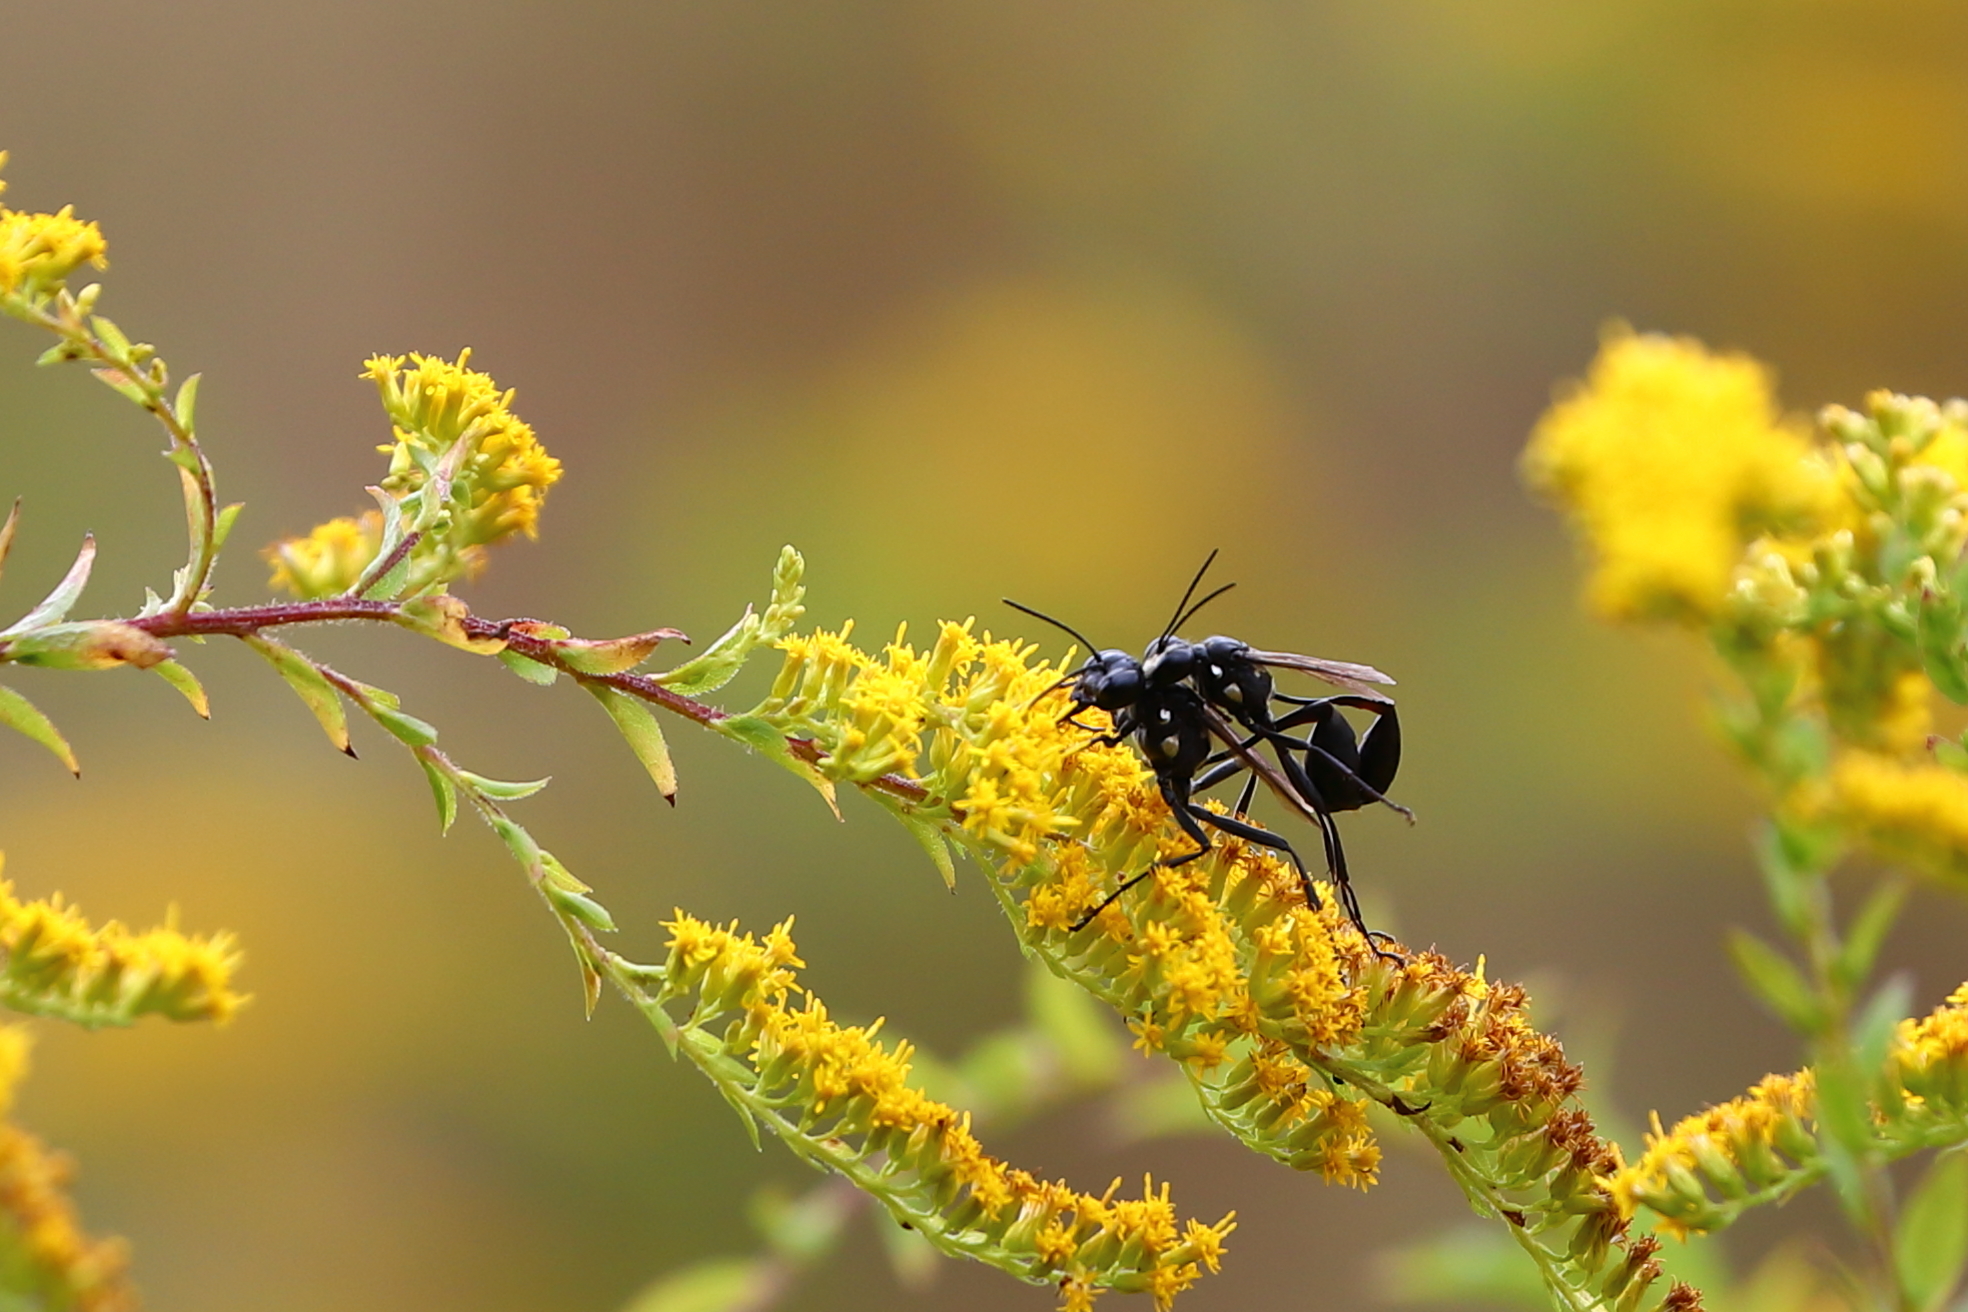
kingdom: Animalia
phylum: Arthropoda
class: Insecta
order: Hymenoptera
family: Sphecidae
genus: Eremnophila
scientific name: Eremnophila aureonotata
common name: Gold-marked thread-waisted wasp
